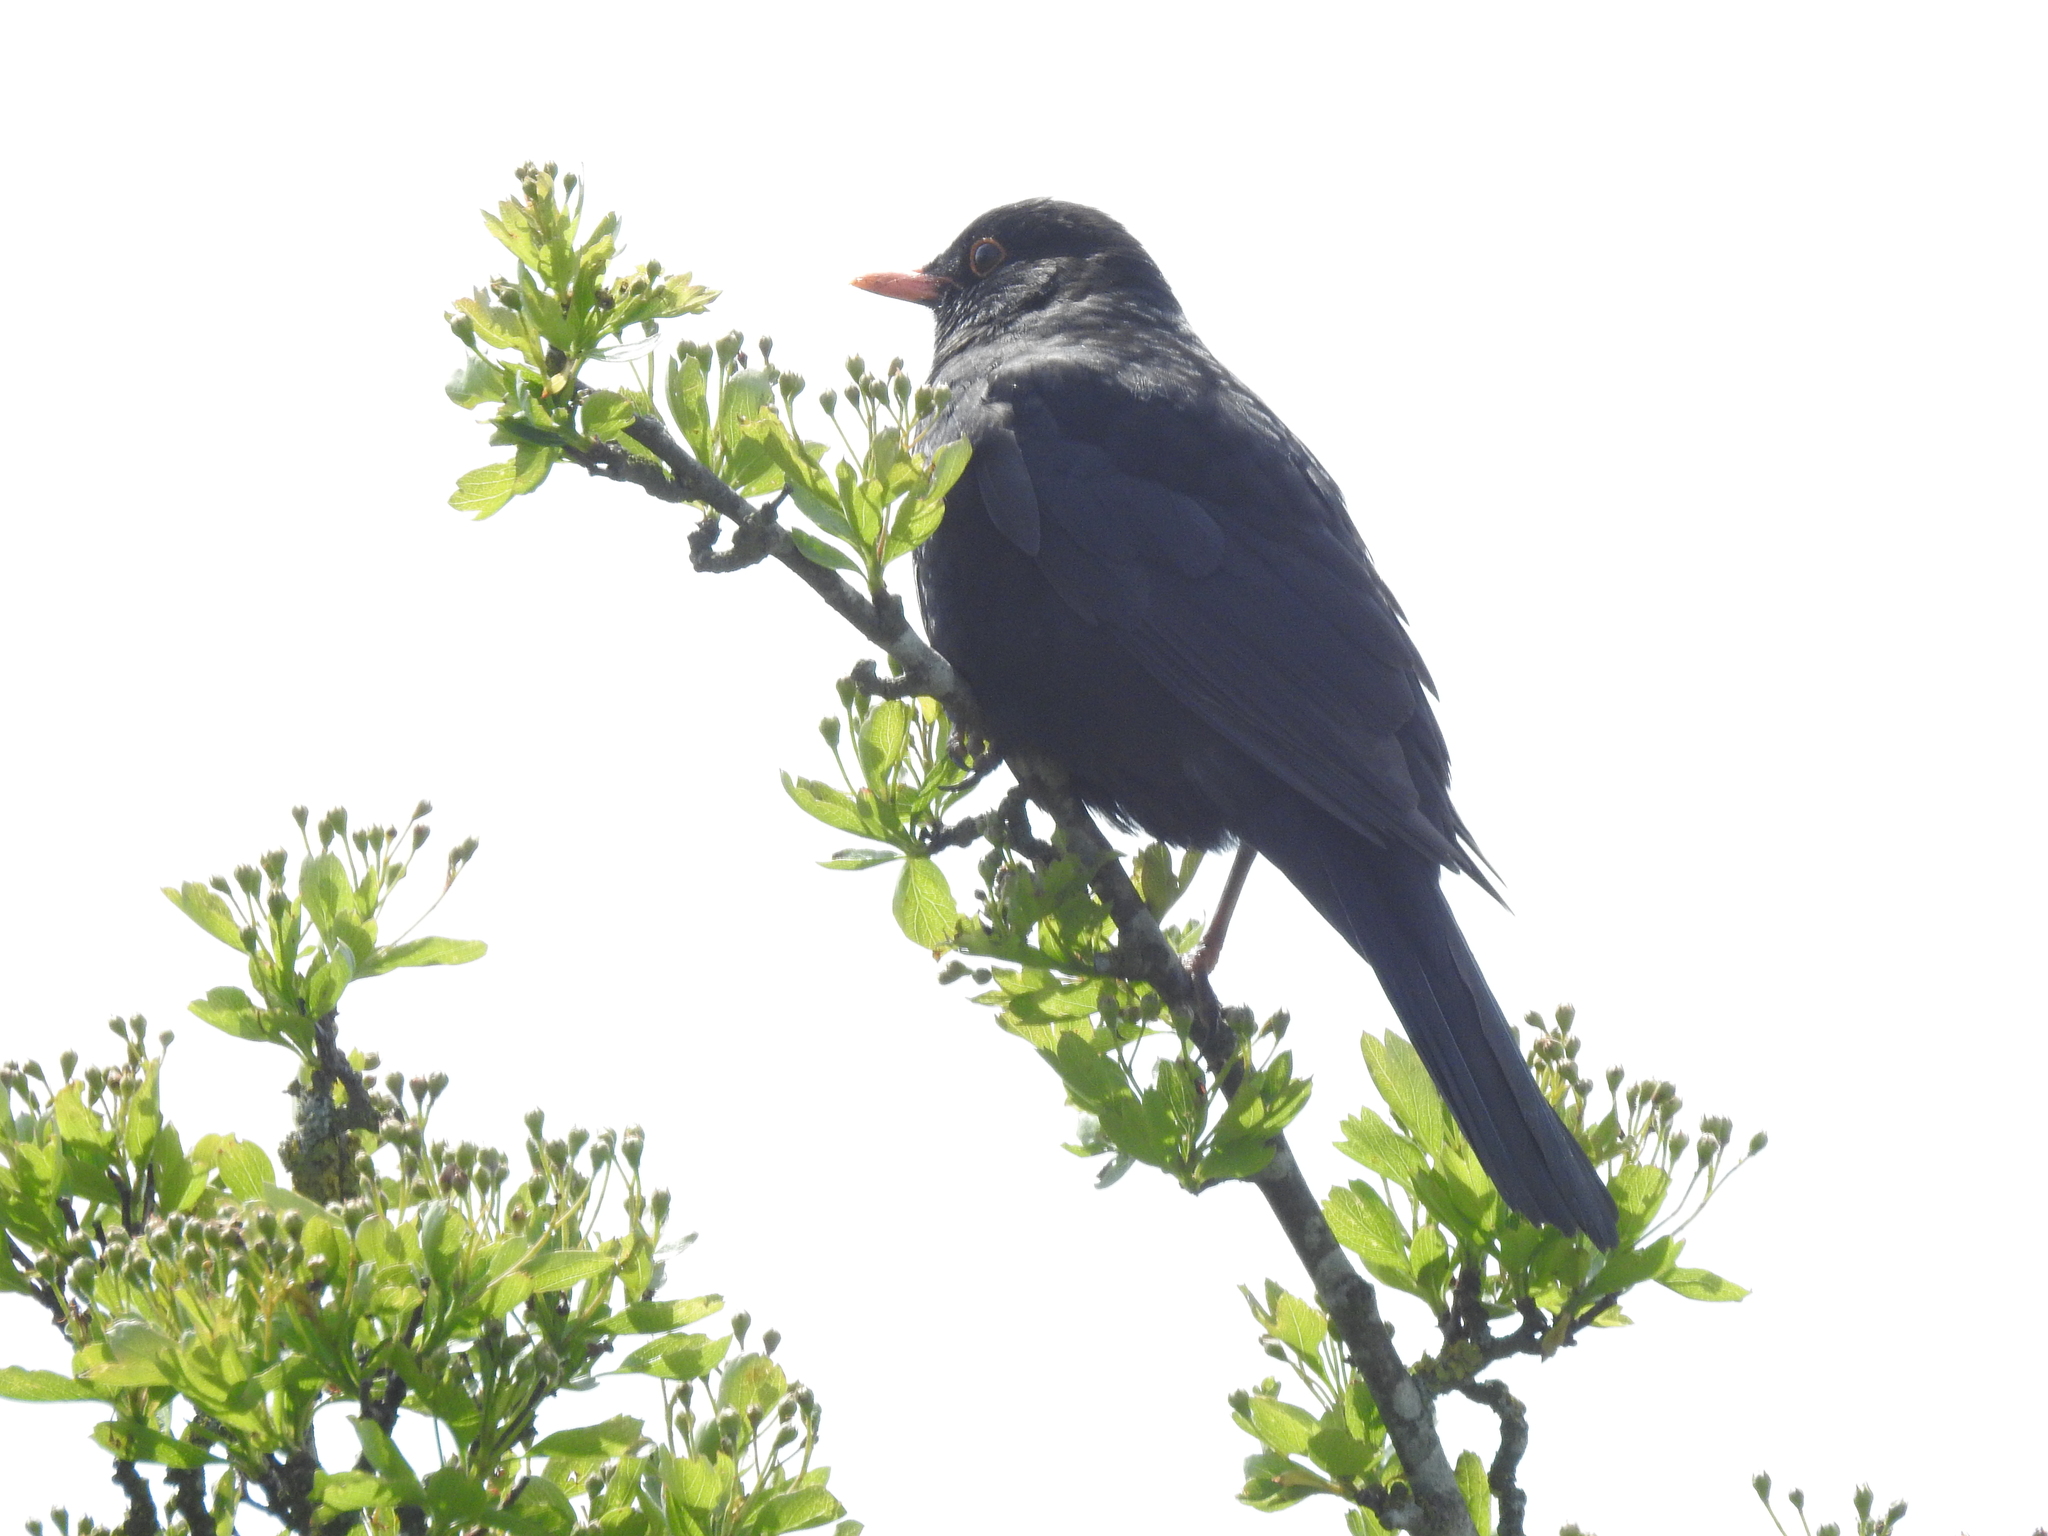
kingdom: Animalia
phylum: Chordata
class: Aves
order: Passeriformes
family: Turdidae
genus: Turdus
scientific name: Turdus merula
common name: Common blackbird
